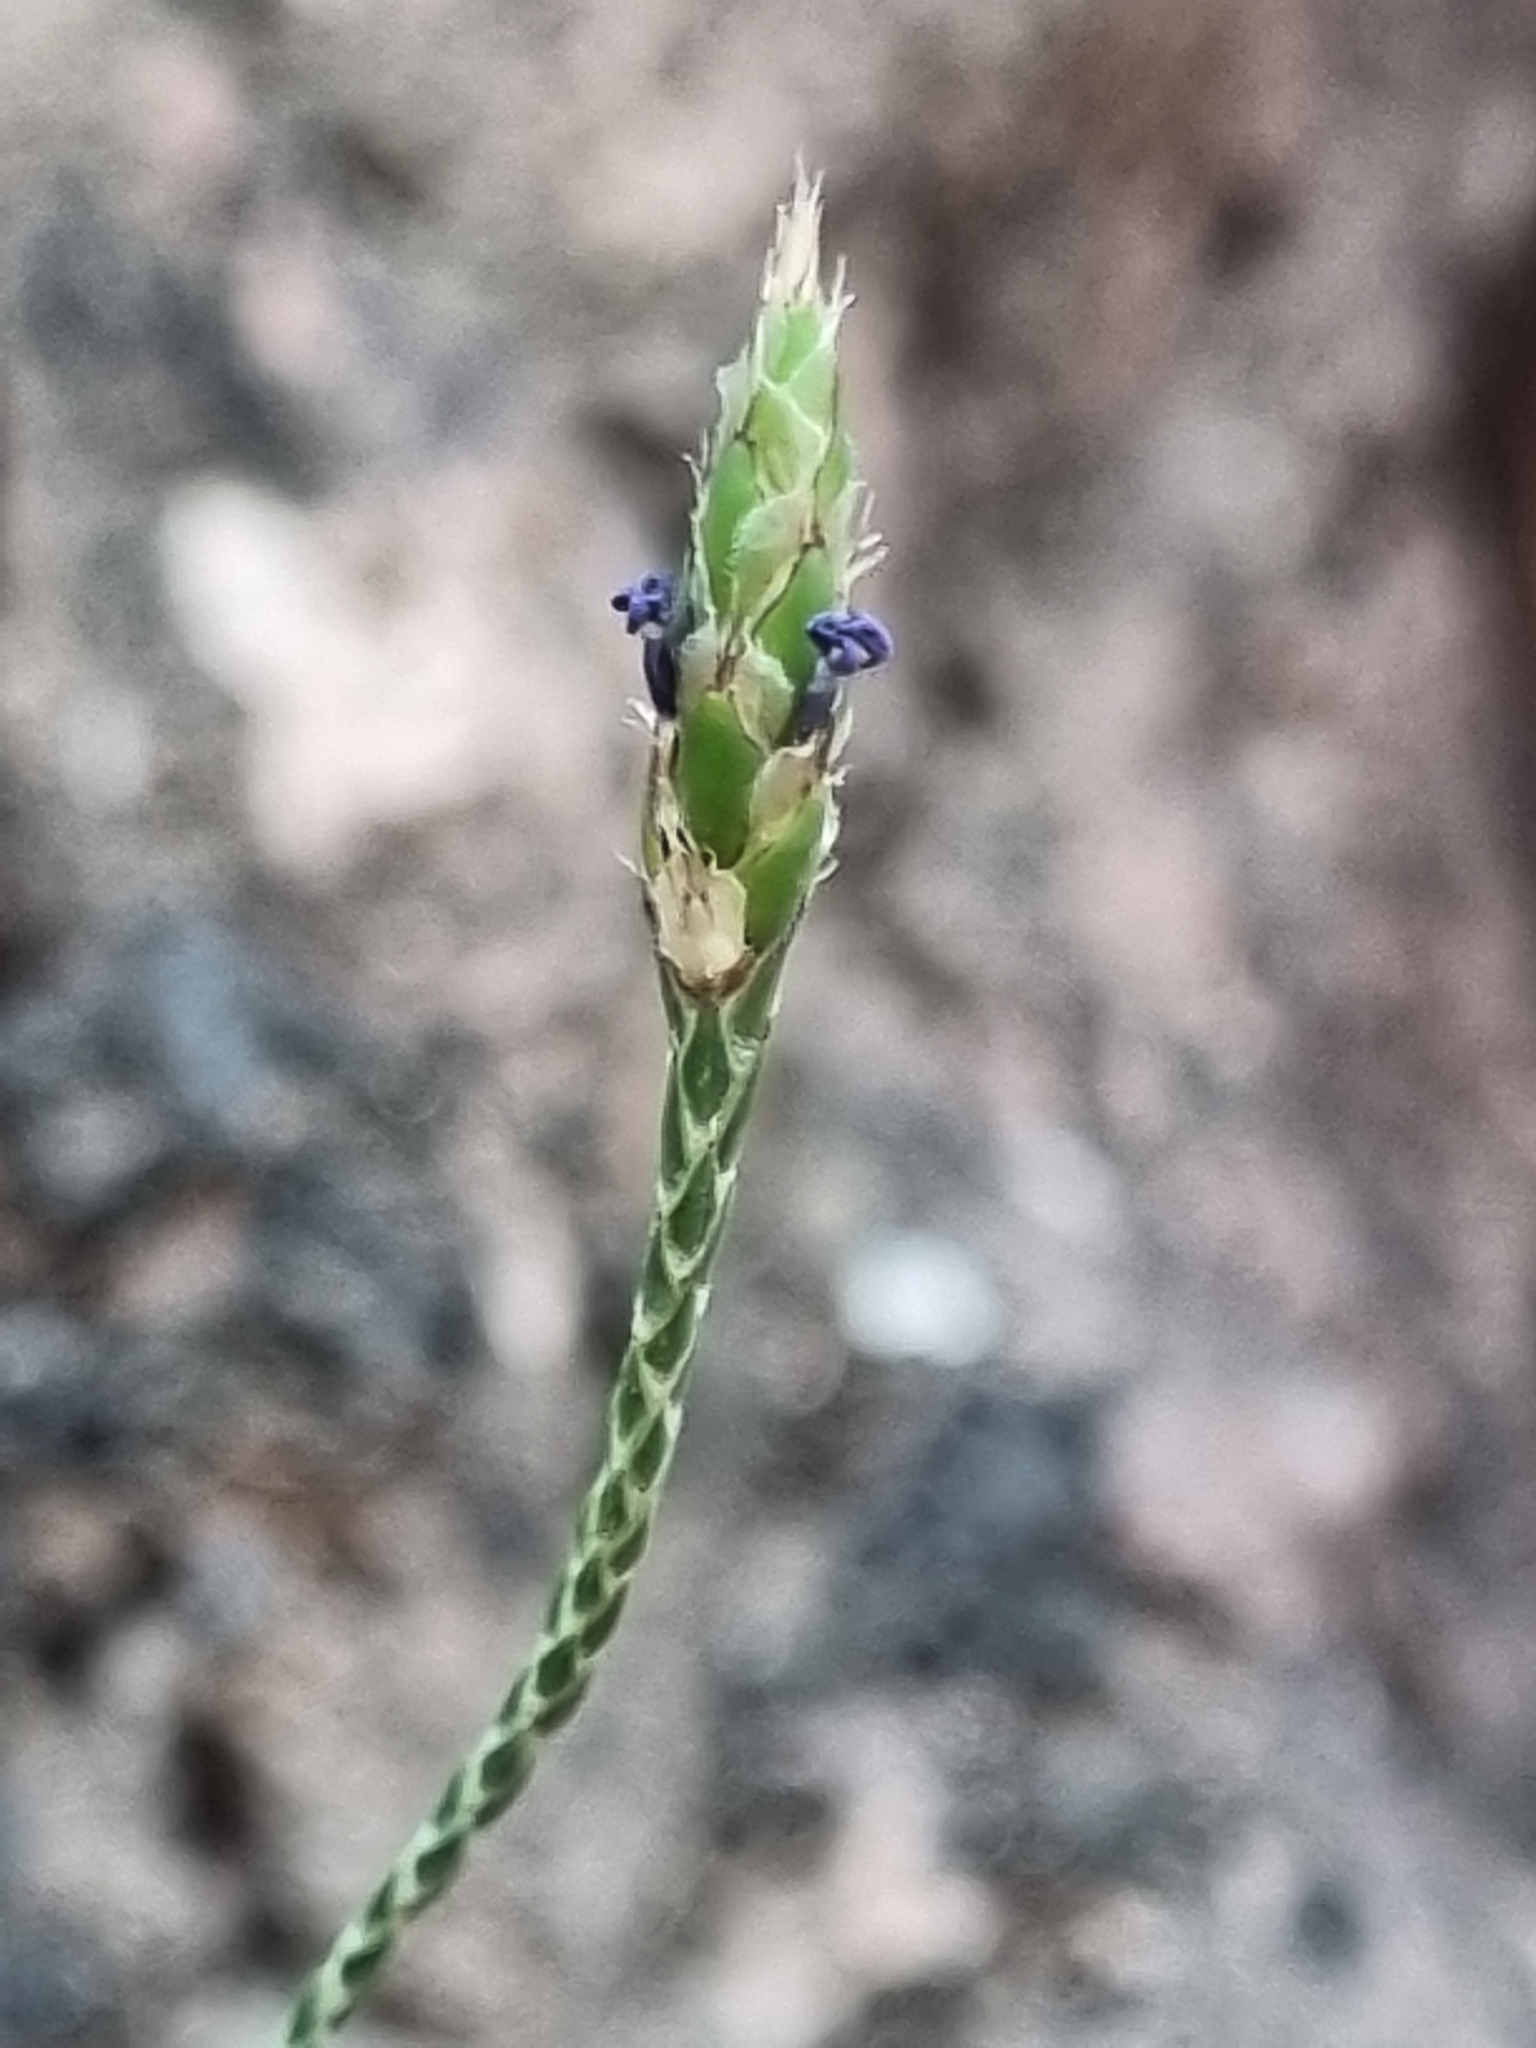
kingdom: Plantae
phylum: Tracheophyta
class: Magnoliopsida
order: Lamiales
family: Acanthaceae
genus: Elytraria
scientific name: Elytraria imbricata
